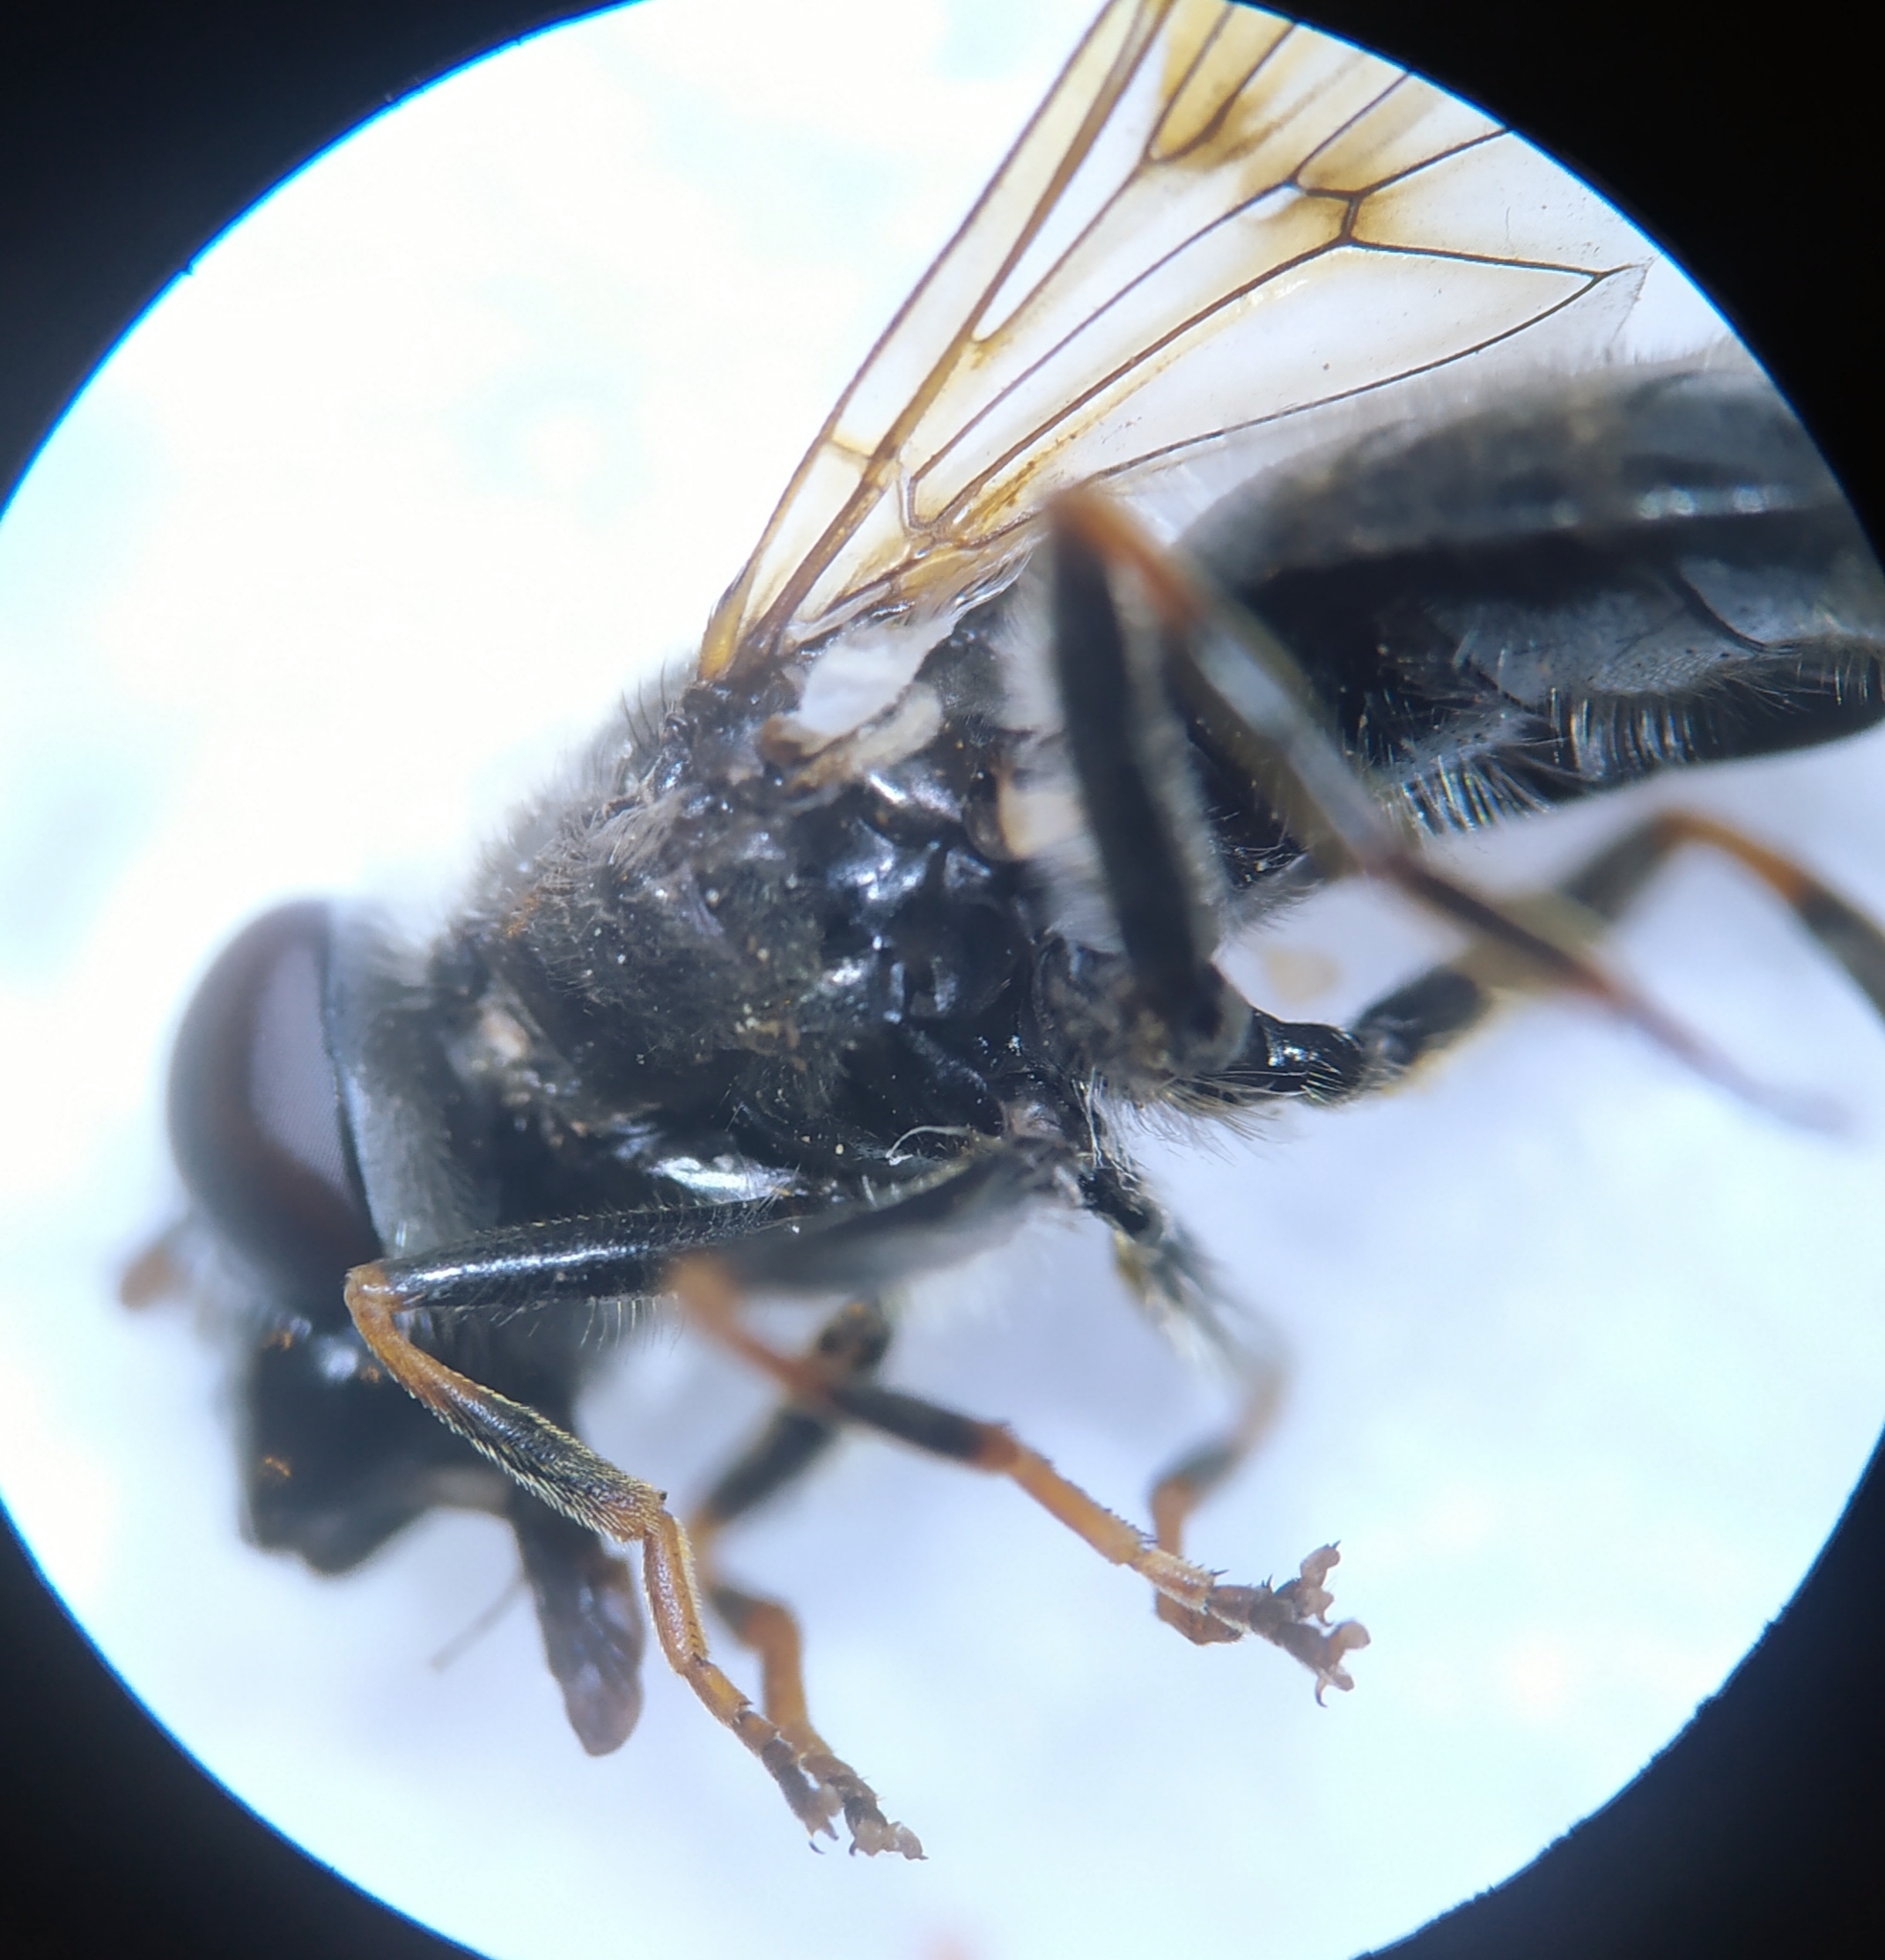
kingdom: Animalia
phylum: Arthropoda
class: Insecta
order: Diptera
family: Syrphidae
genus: Cheilosia
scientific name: Cheilosia caerulescens
